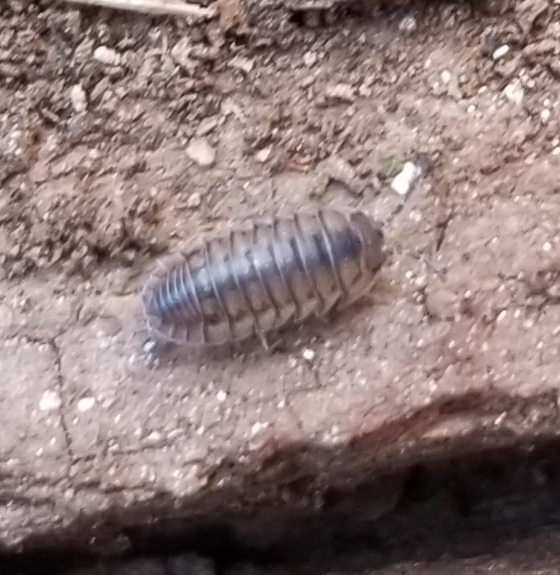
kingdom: Animalia
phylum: Arthropoda
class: Malacostraca
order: Isopoda
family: Armadillidiidae
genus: Armadillidium
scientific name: Armadillidium nasatum
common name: Isopod
